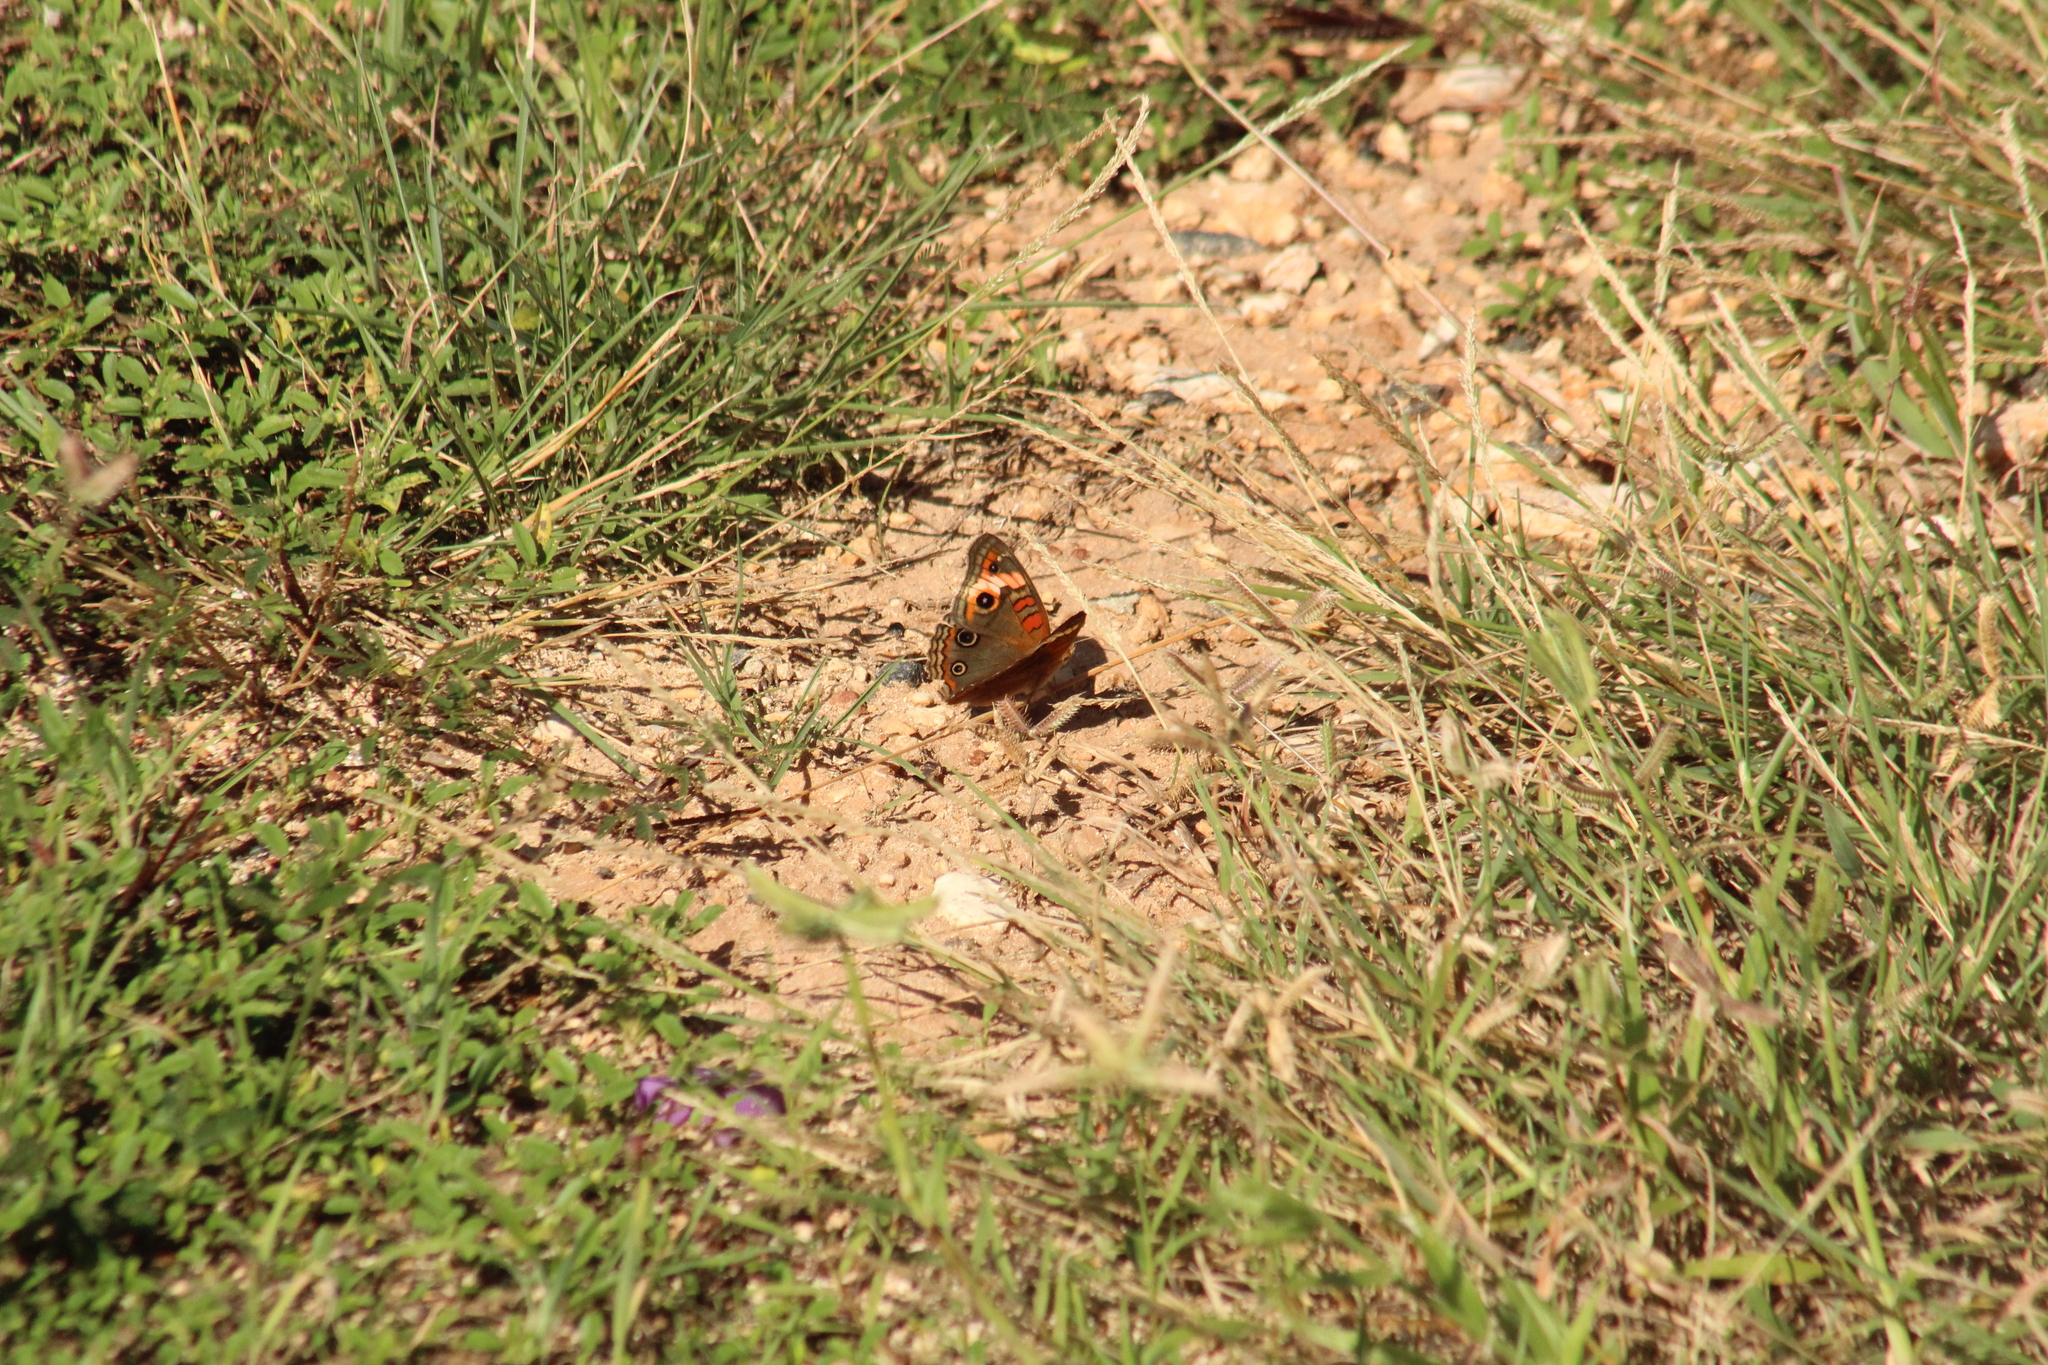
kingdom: Animalia
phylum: Arthropoda
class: Insecta
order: Lepidoptera
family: Nymphalidae
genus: Junonia
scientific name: Junonia neildi
